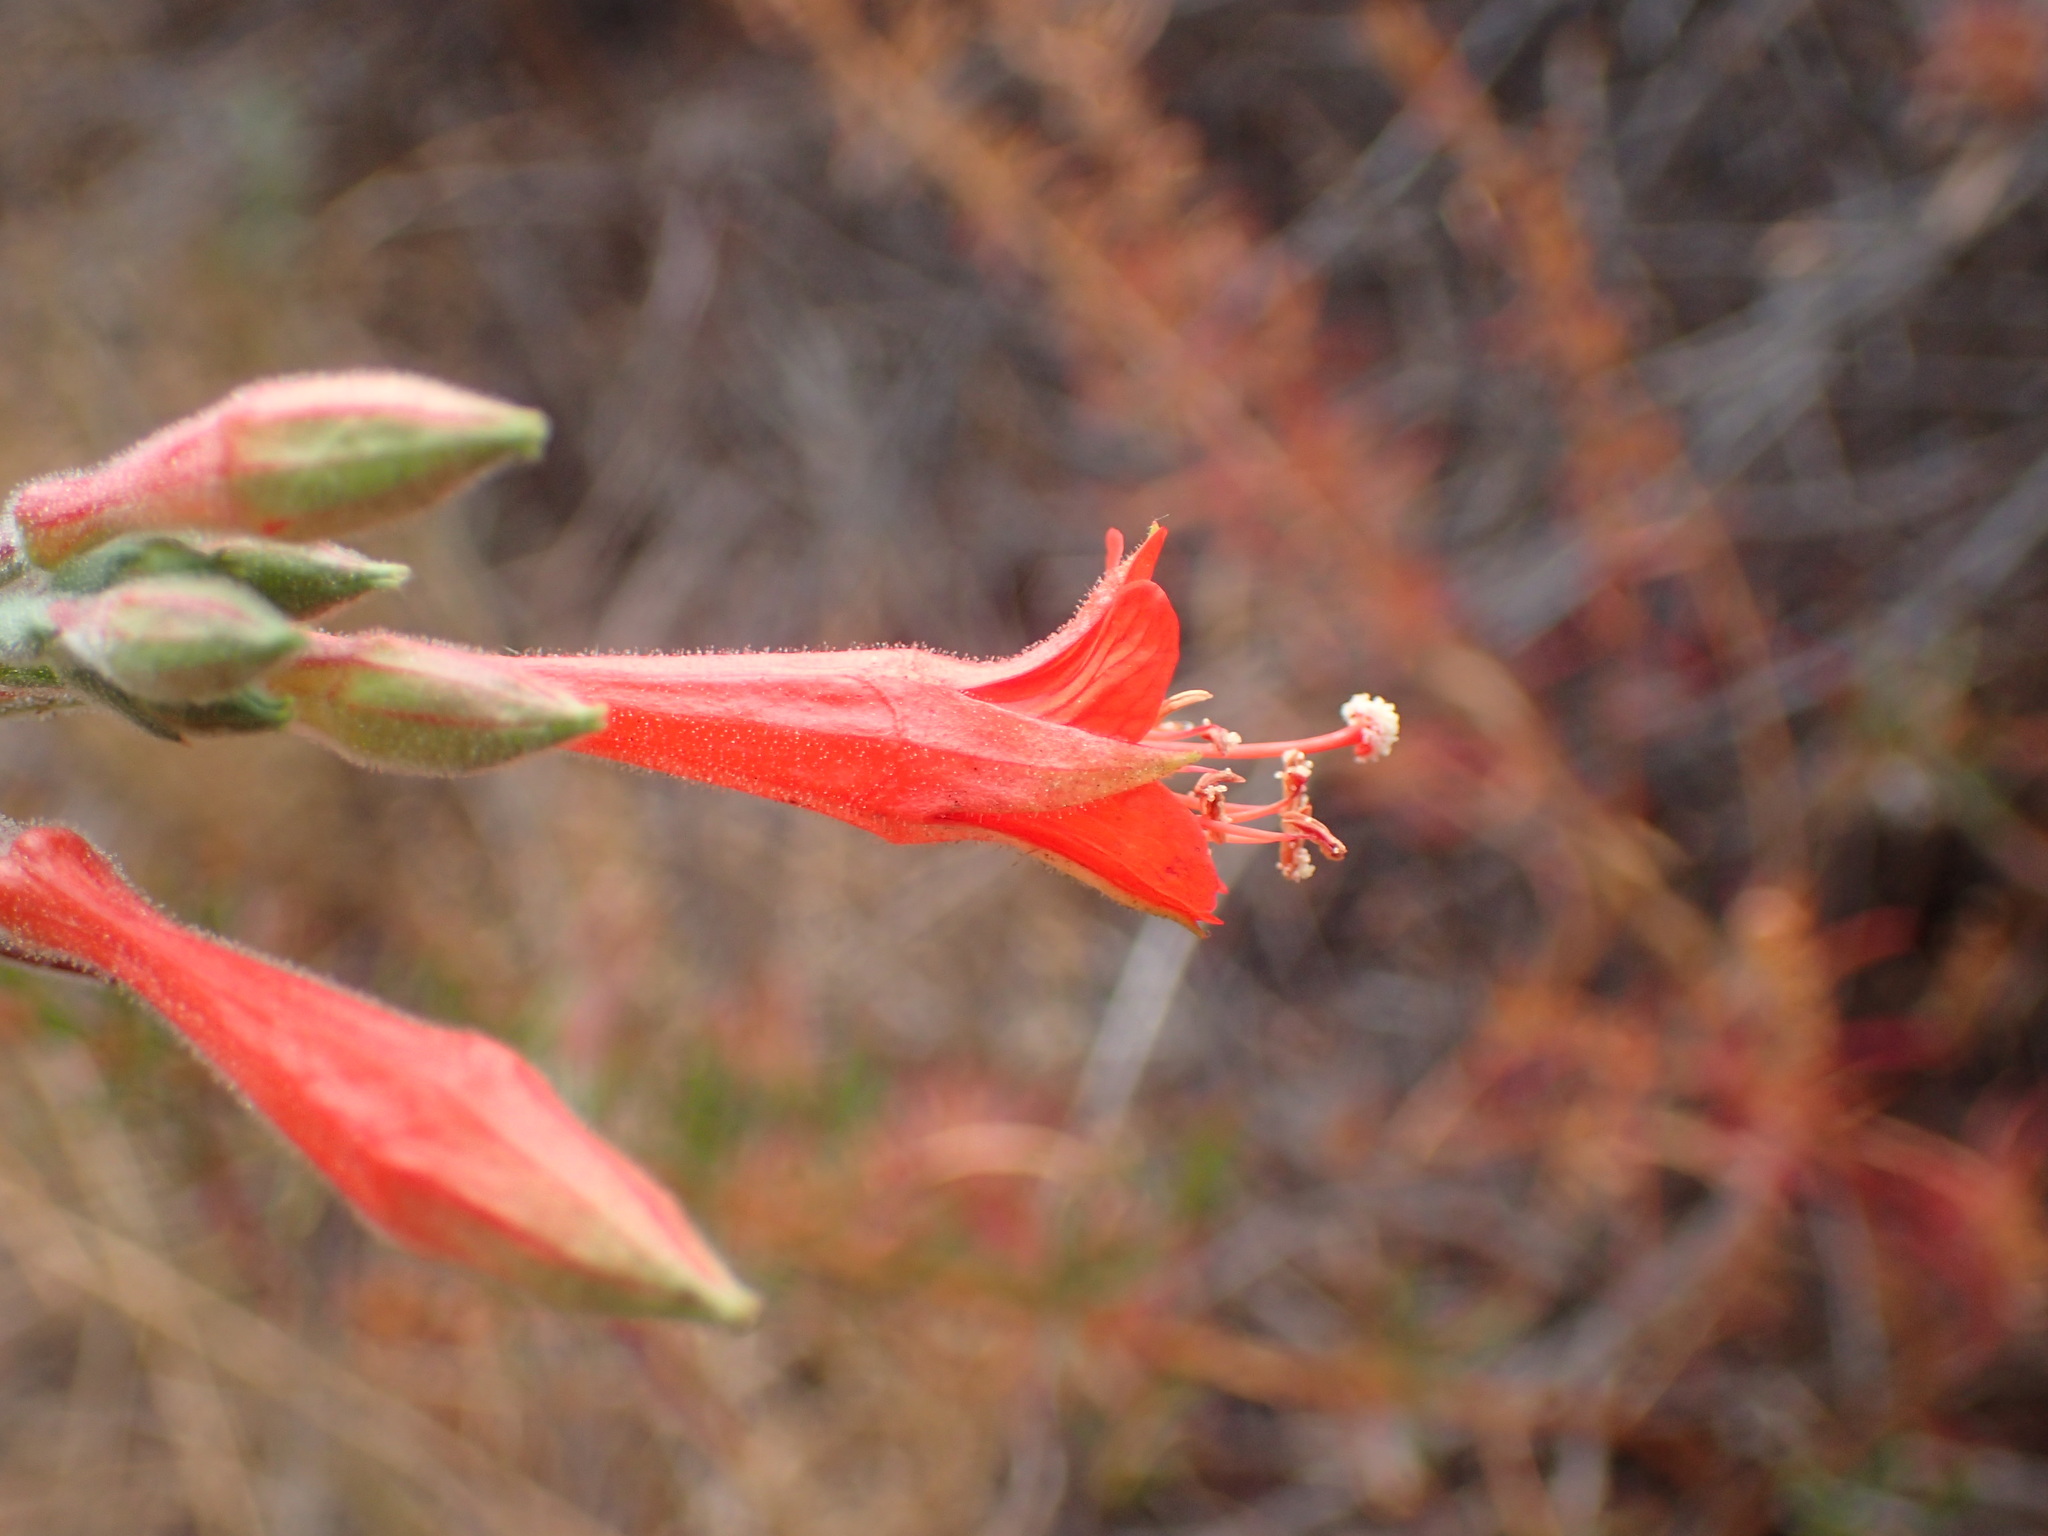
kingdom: Plantae
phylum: Tracheophyta
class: Magnoliopsida
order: Myrtales
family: Onagraceae
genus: Epilobium
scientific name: Epilobium canum
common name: California-fuchsia
